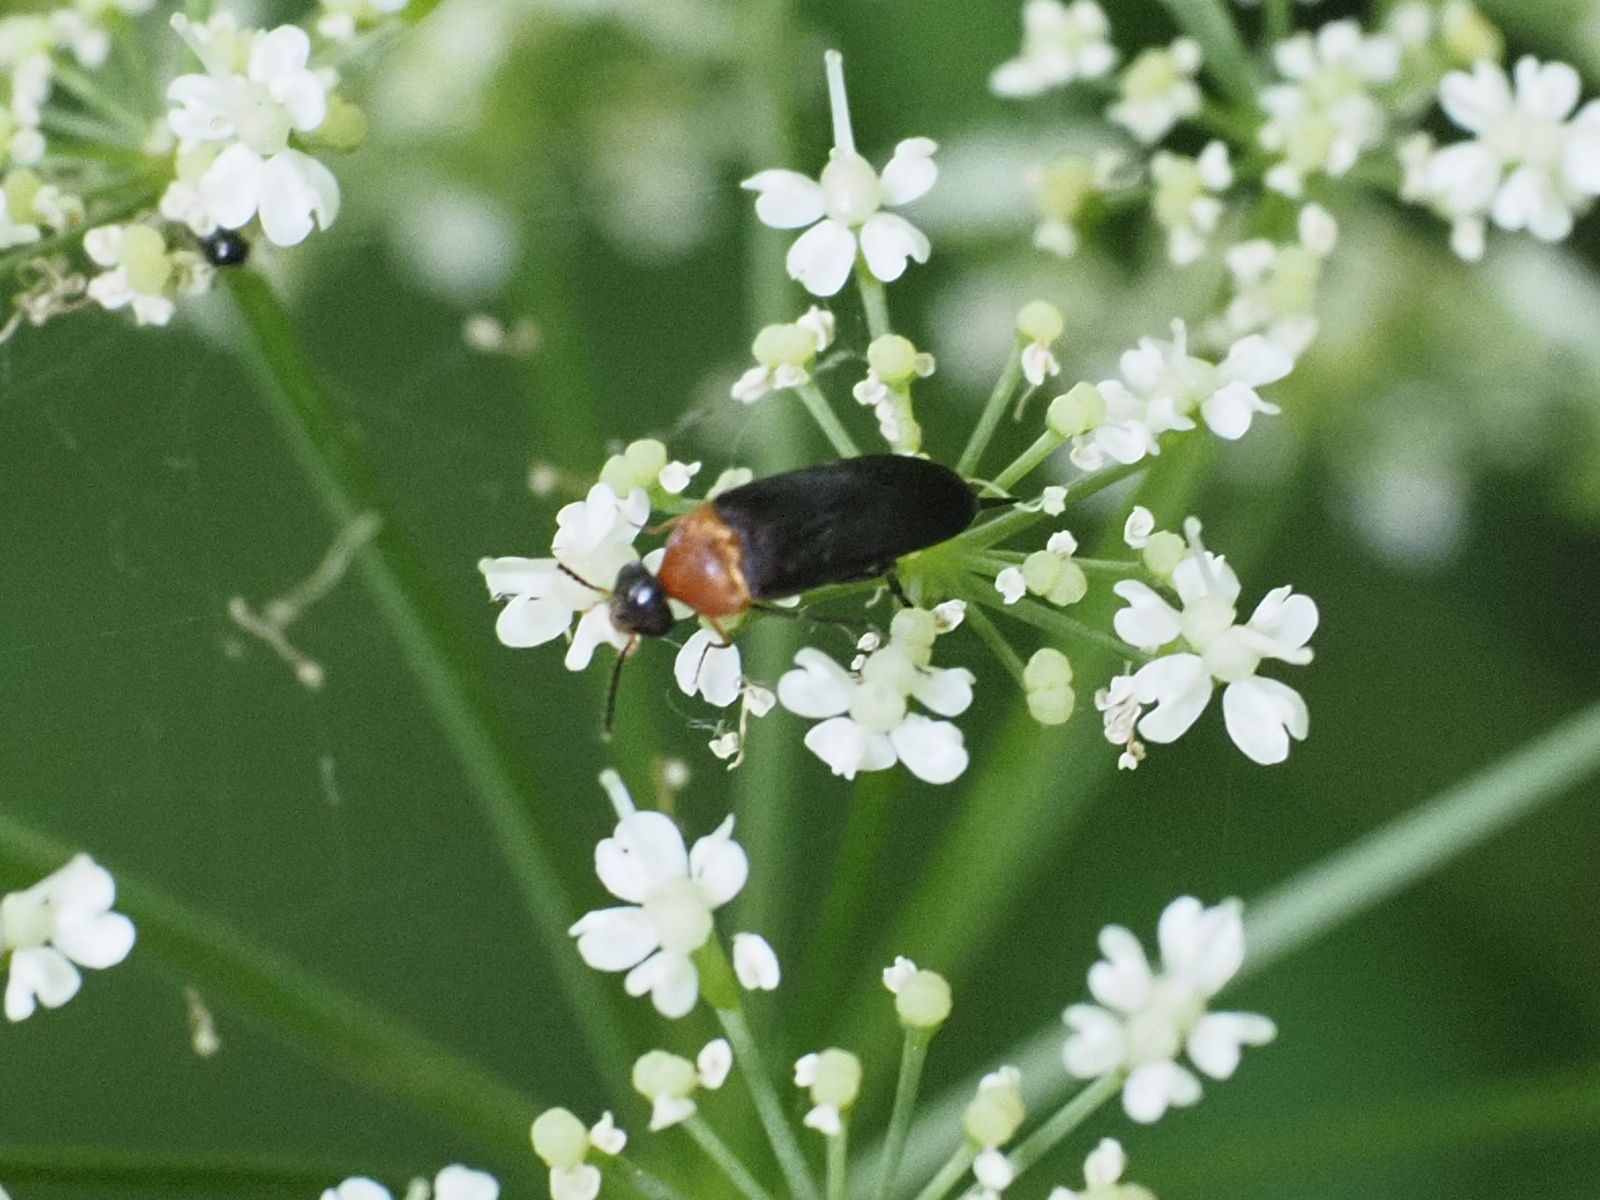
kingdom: Animalia
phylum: Arthropoda
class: Insecta
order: Coleoptera
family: Mordellidae
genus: Mordellochroa
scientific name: Mordellochroa abdominalis
